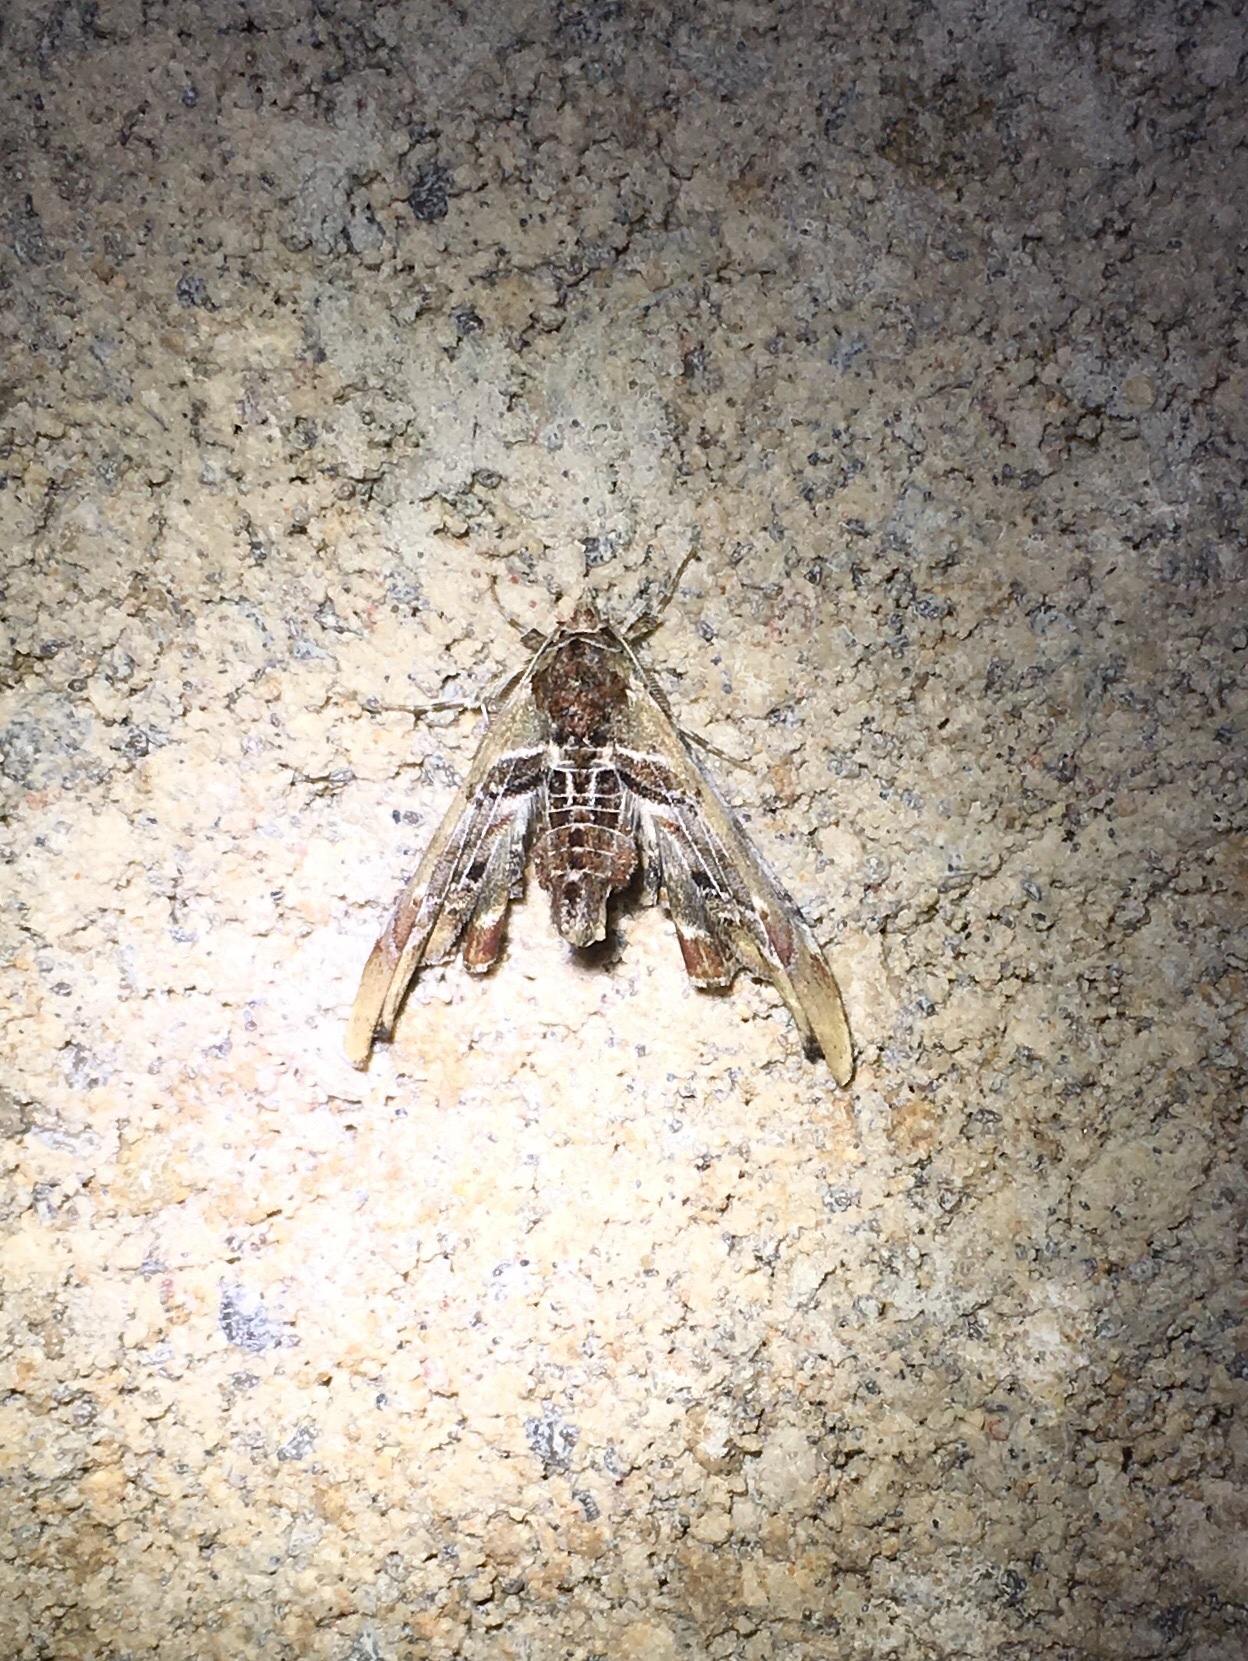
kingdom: Animalia
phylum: Arthropoda
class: Insecta
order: Lepidoptera
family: Euteliidae
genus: Marathyssa
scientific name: Marathyssa basalis
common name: Light marathyssa moth
